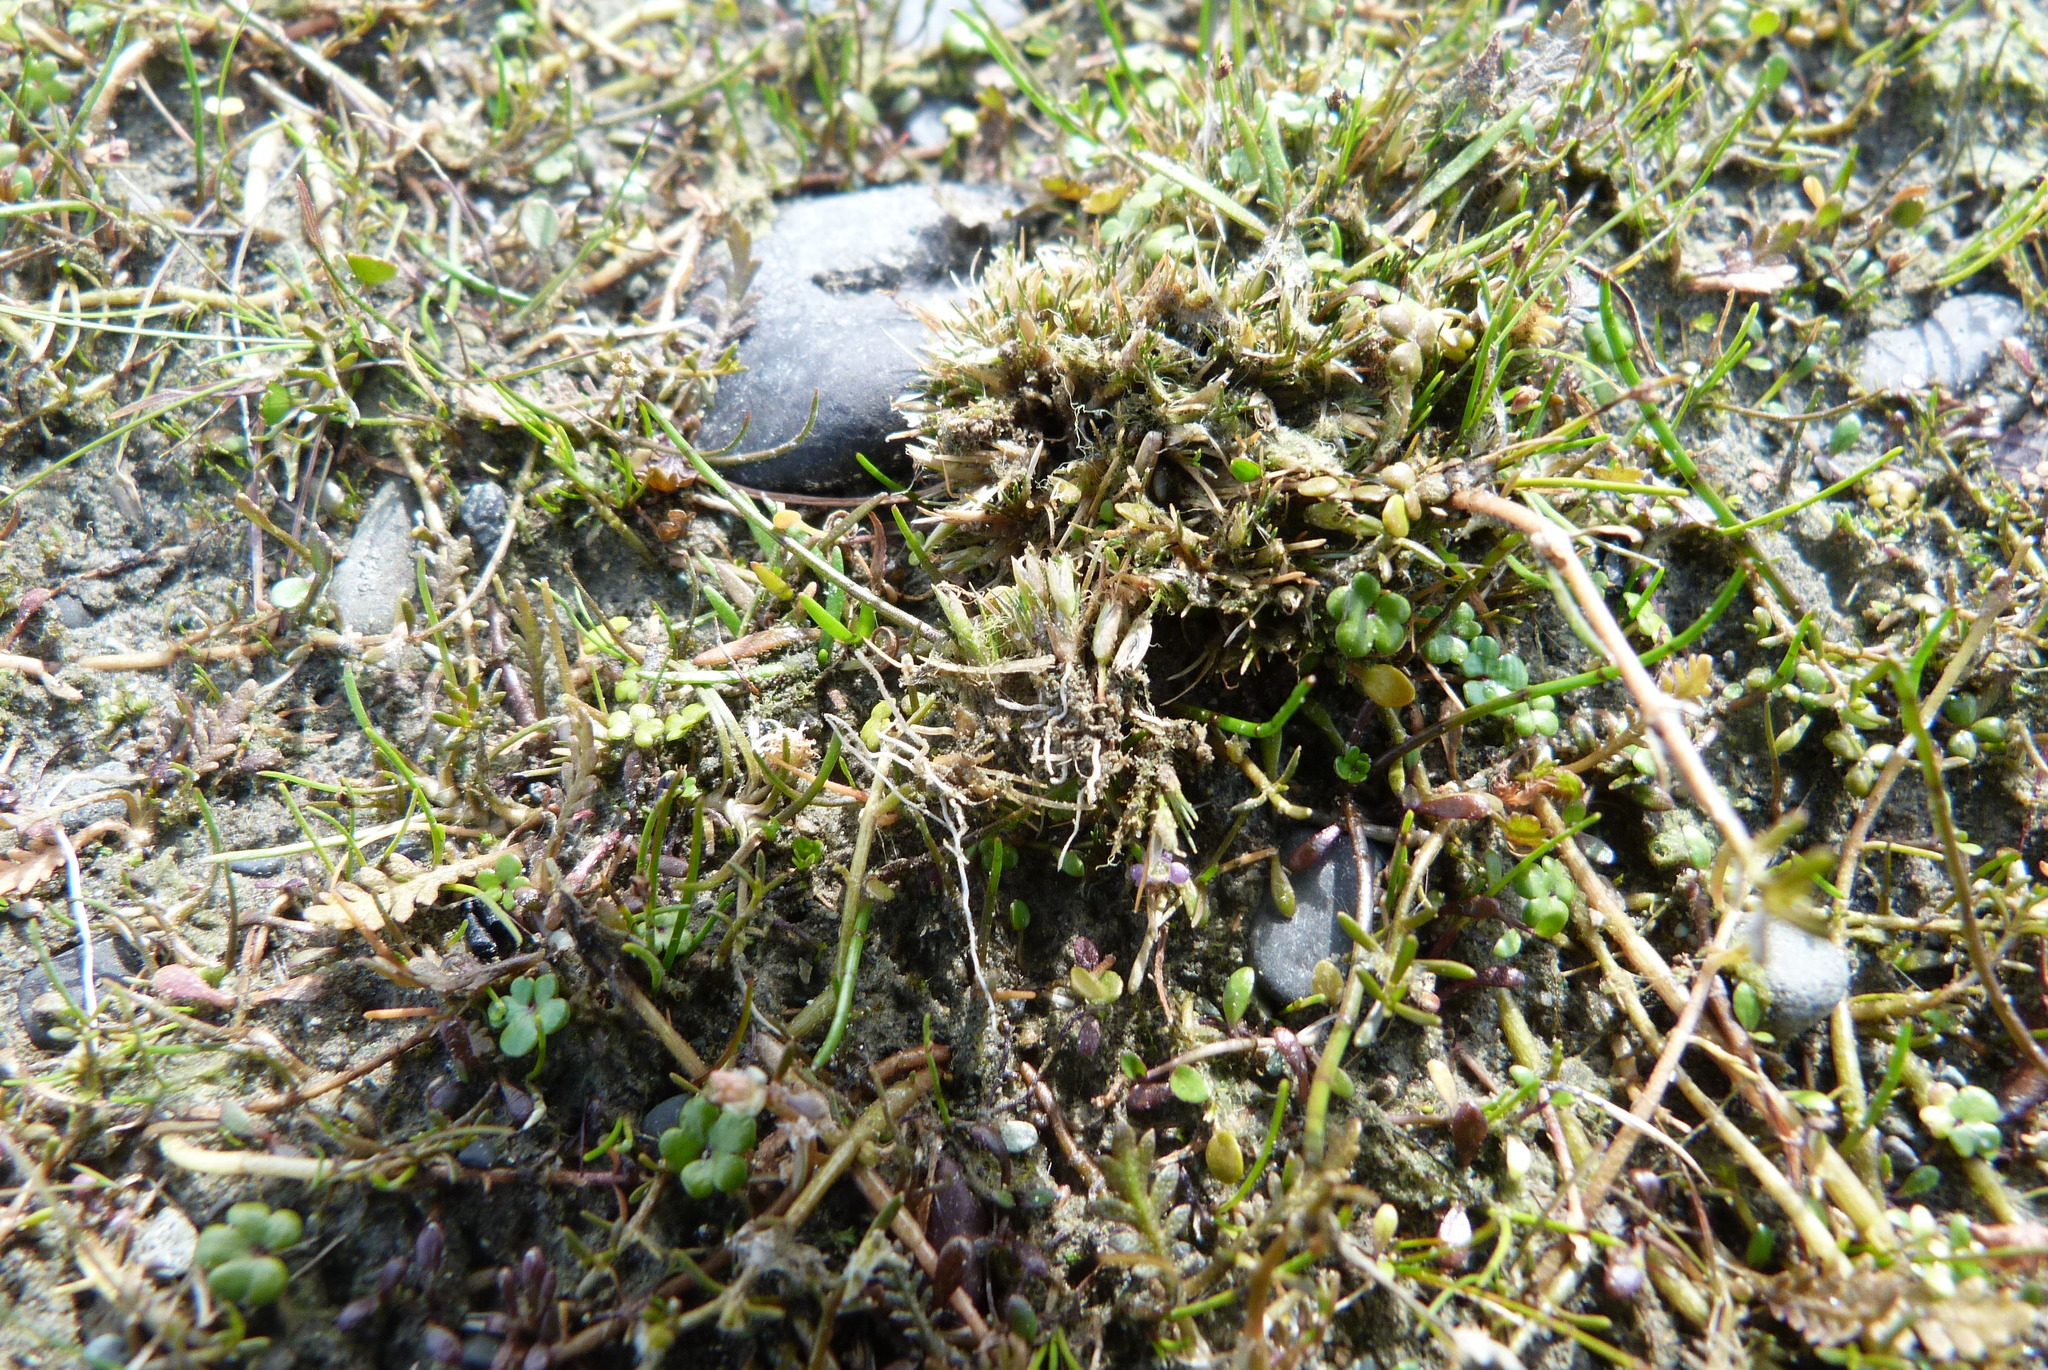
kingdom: Plantae
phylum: Tracheophyta
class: Liliopsida
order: Poales
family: Restionaceae
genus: Centrolepis
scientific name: Centrolepis pallida
